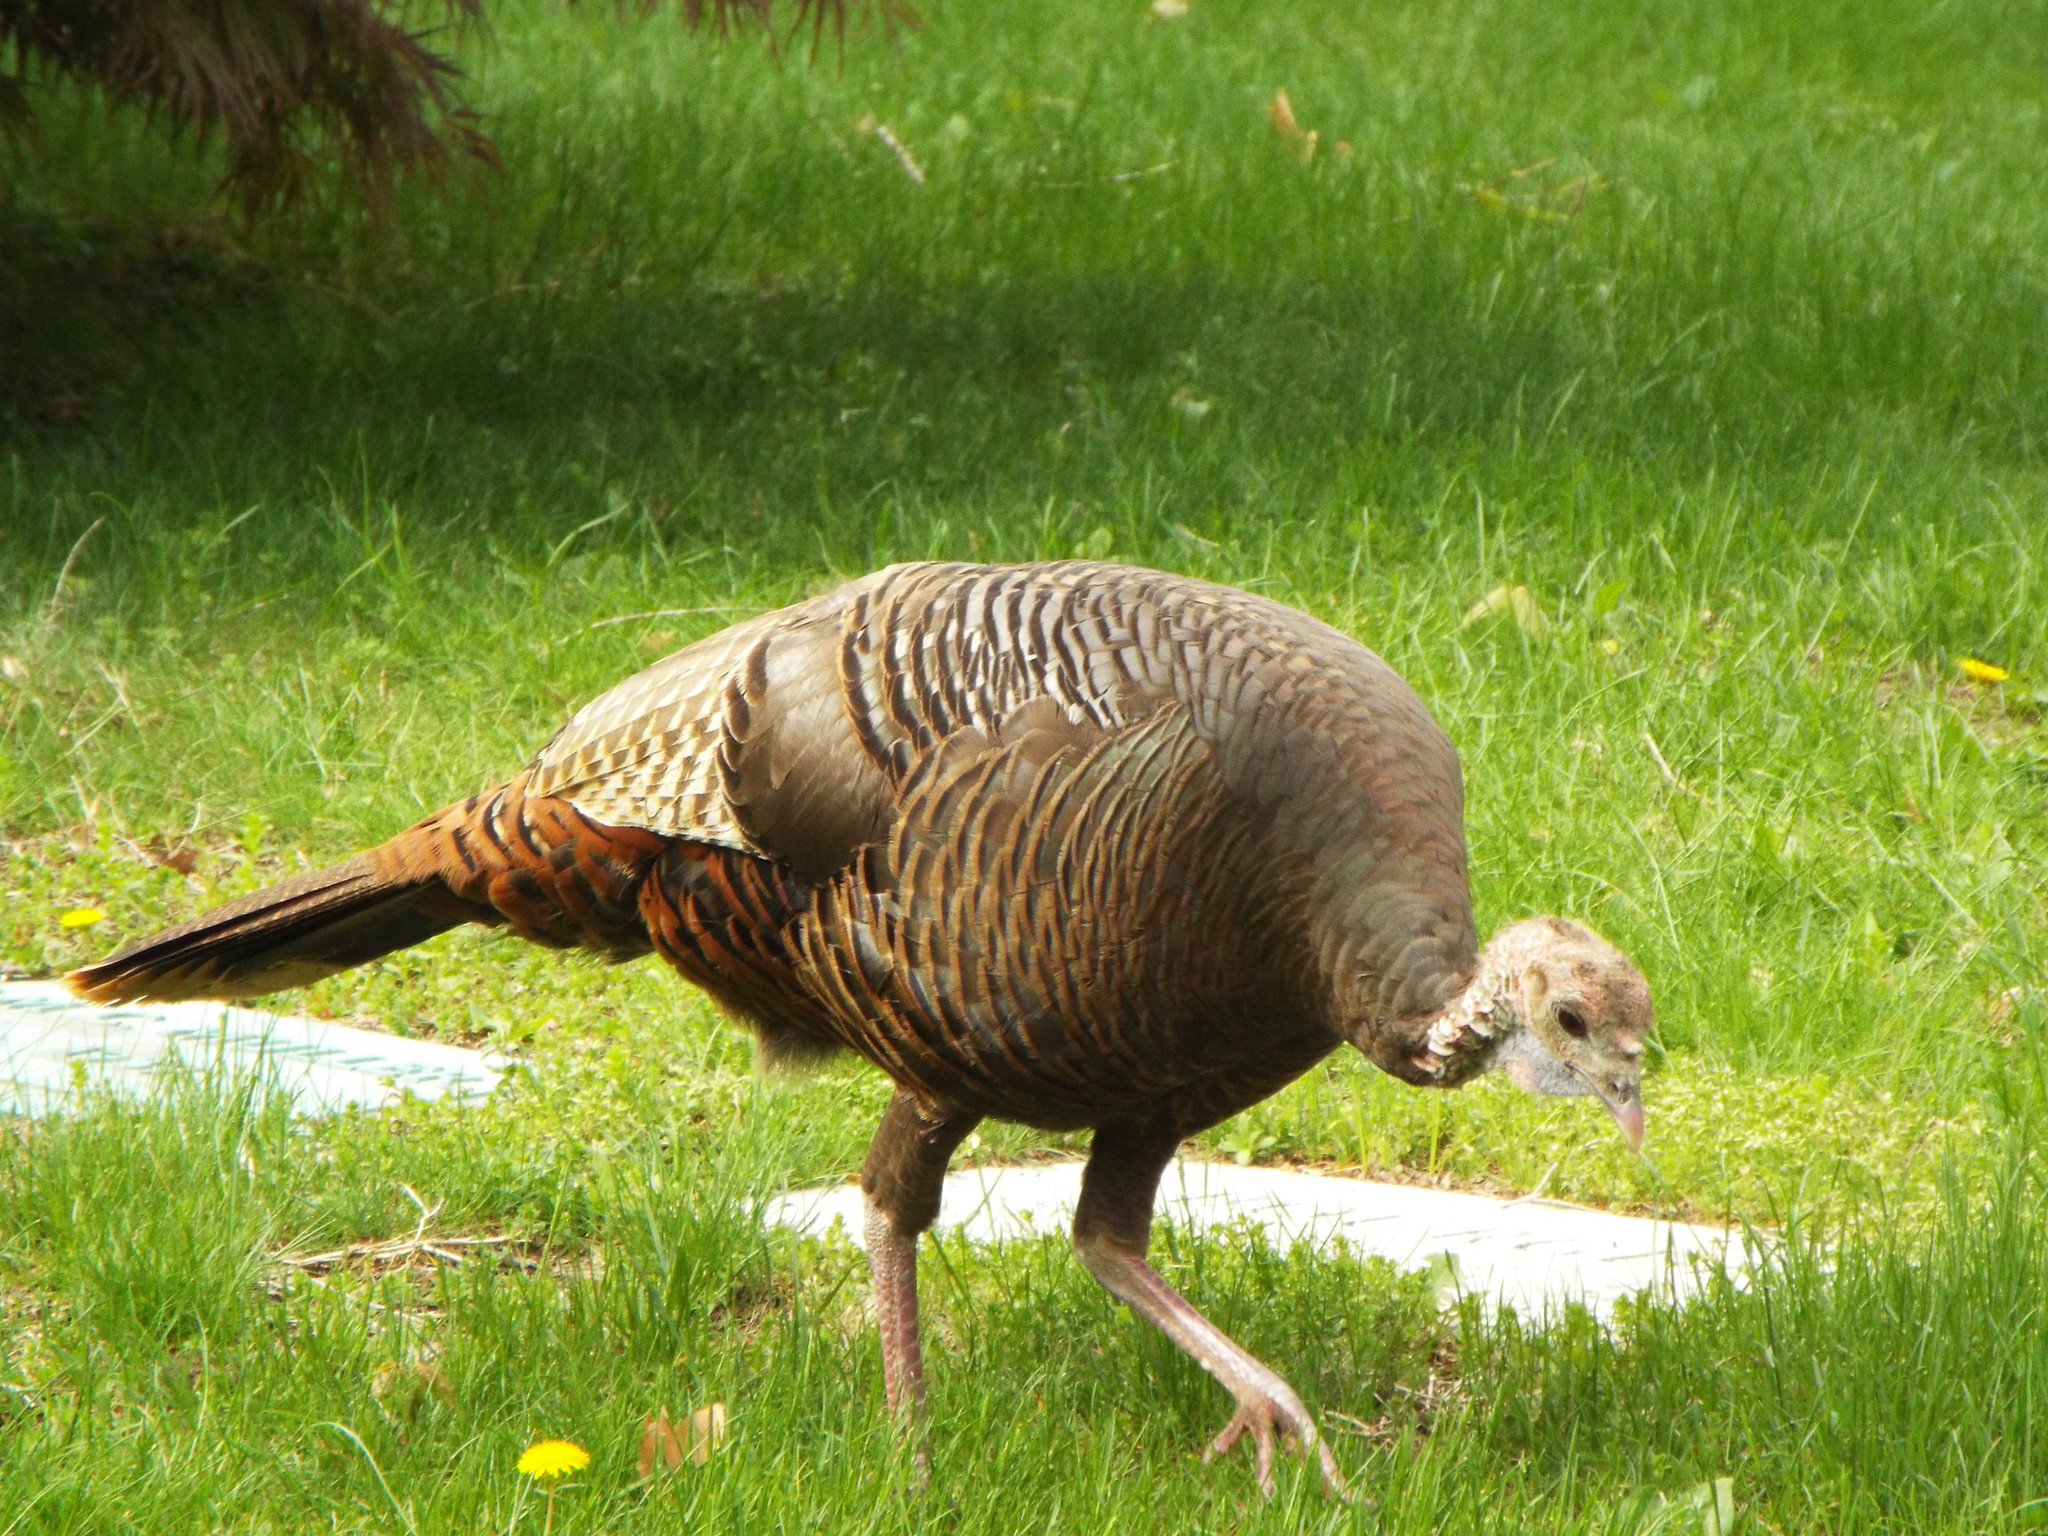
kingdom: Animalia
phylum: Chordata
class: Aves
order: Galliformes
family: Phasianidae
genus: Meleagris
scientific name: Meleagris gallopavo
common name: Wild turkey
